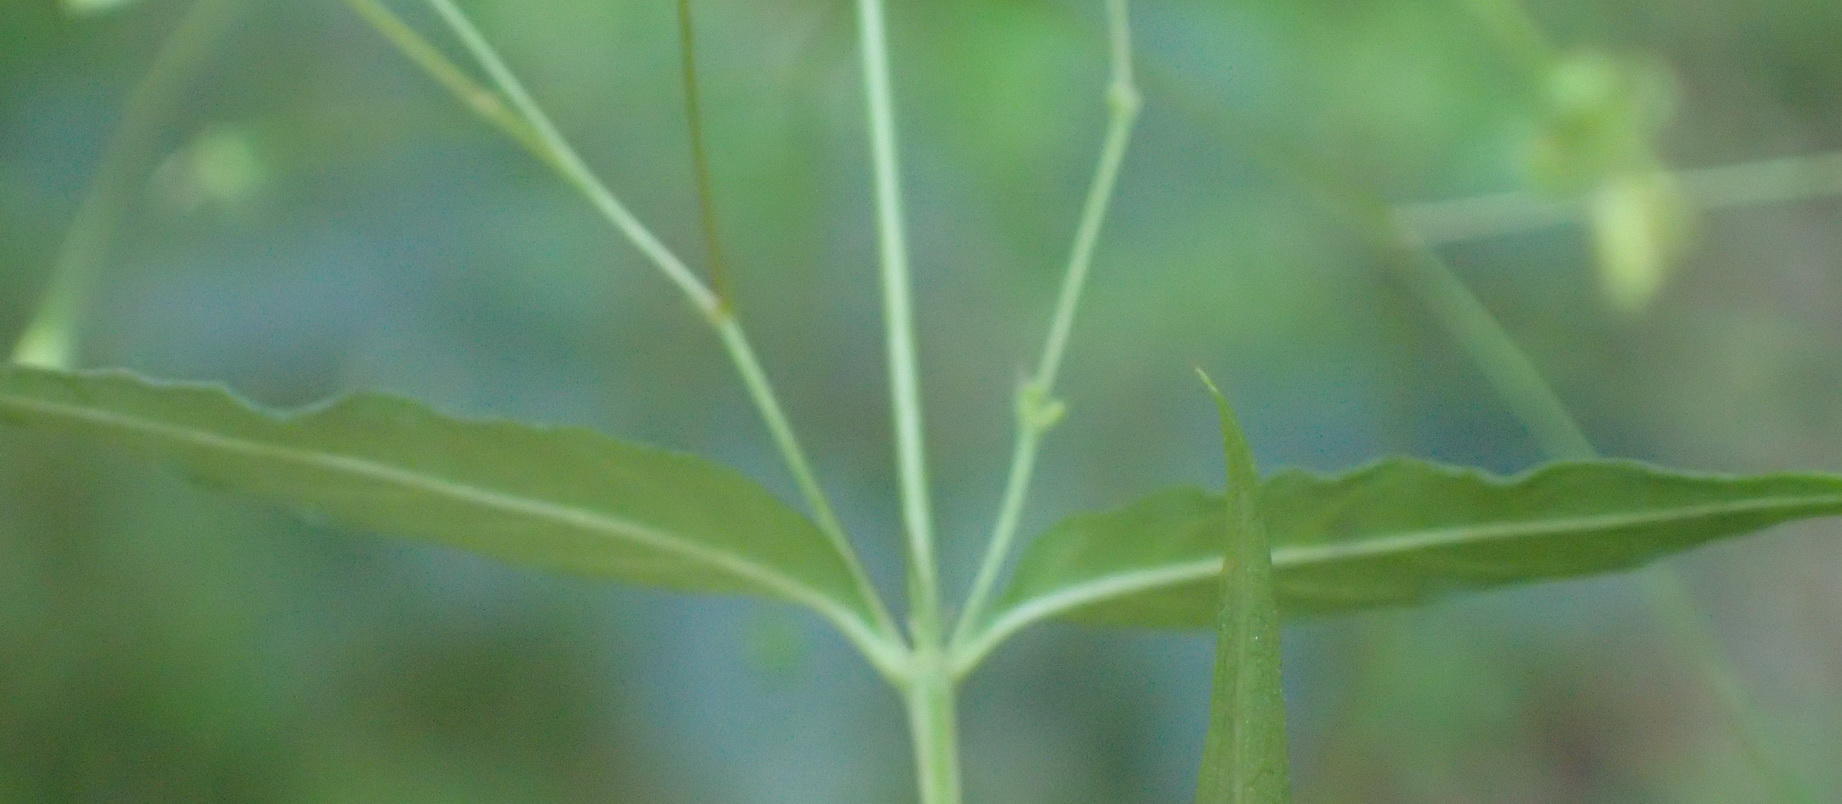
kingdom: Plantae
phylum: Tracheophyta
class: Magnoliopsida
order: Gentianales
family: Rubiaceae
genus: Galopina
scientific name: Galopina circaeoides
